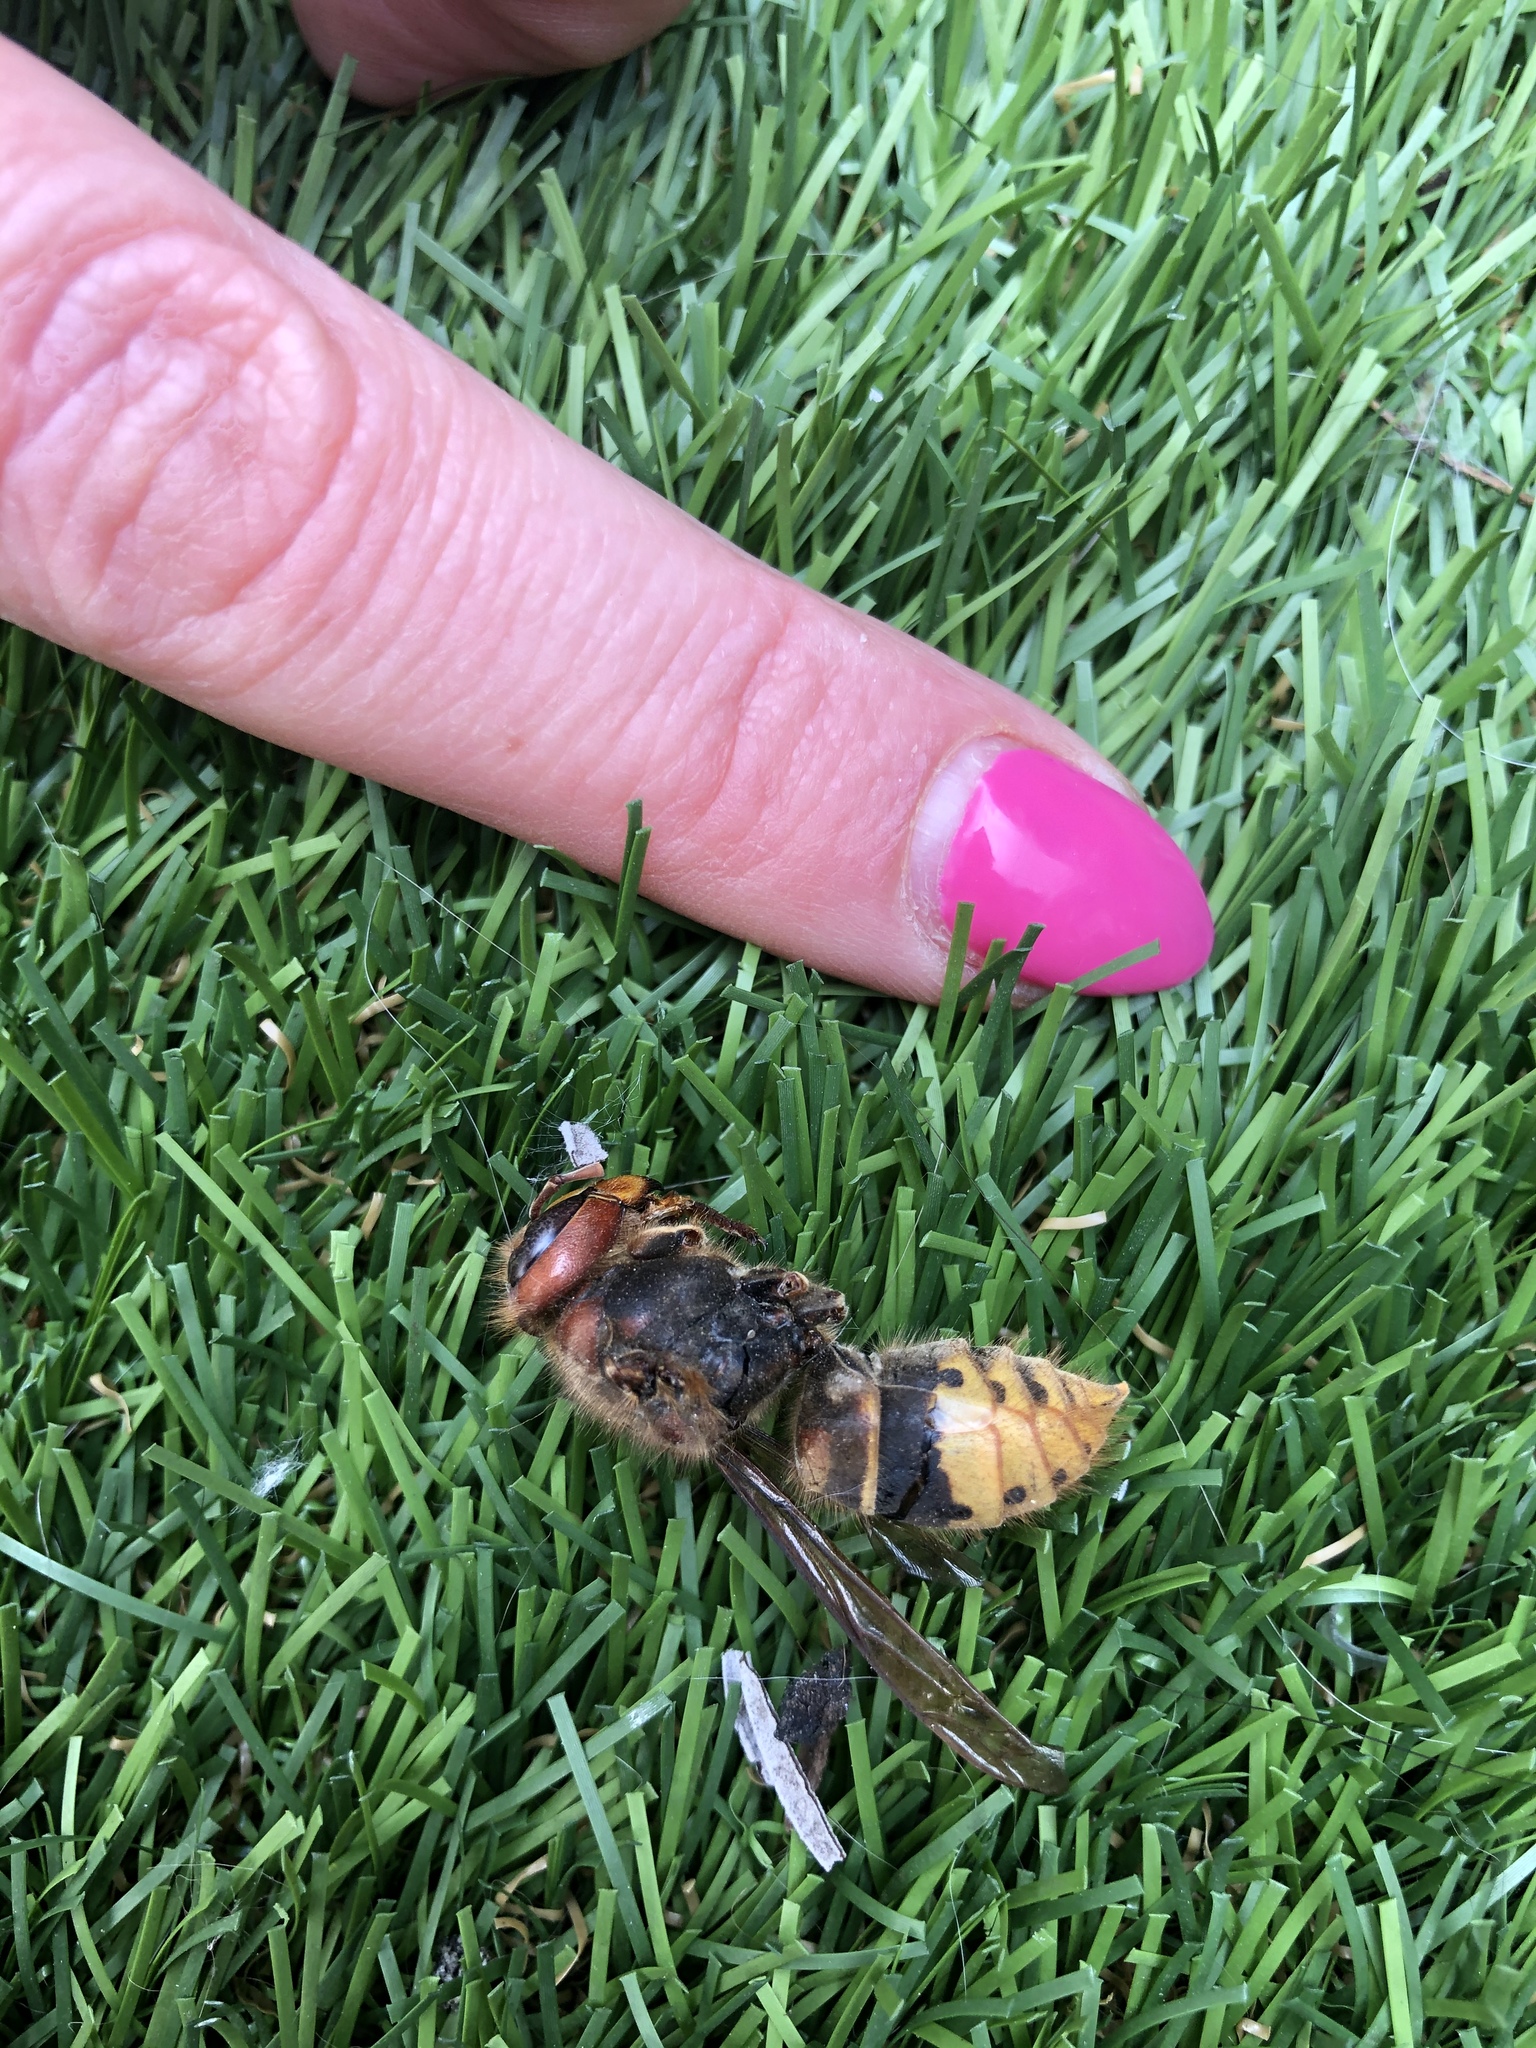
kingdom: Animalia
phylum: Arthropoda
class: Insecta
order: Hymenoptera
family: Vespidae
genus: Vespa
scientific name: Vespa crabro
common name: Hornet
